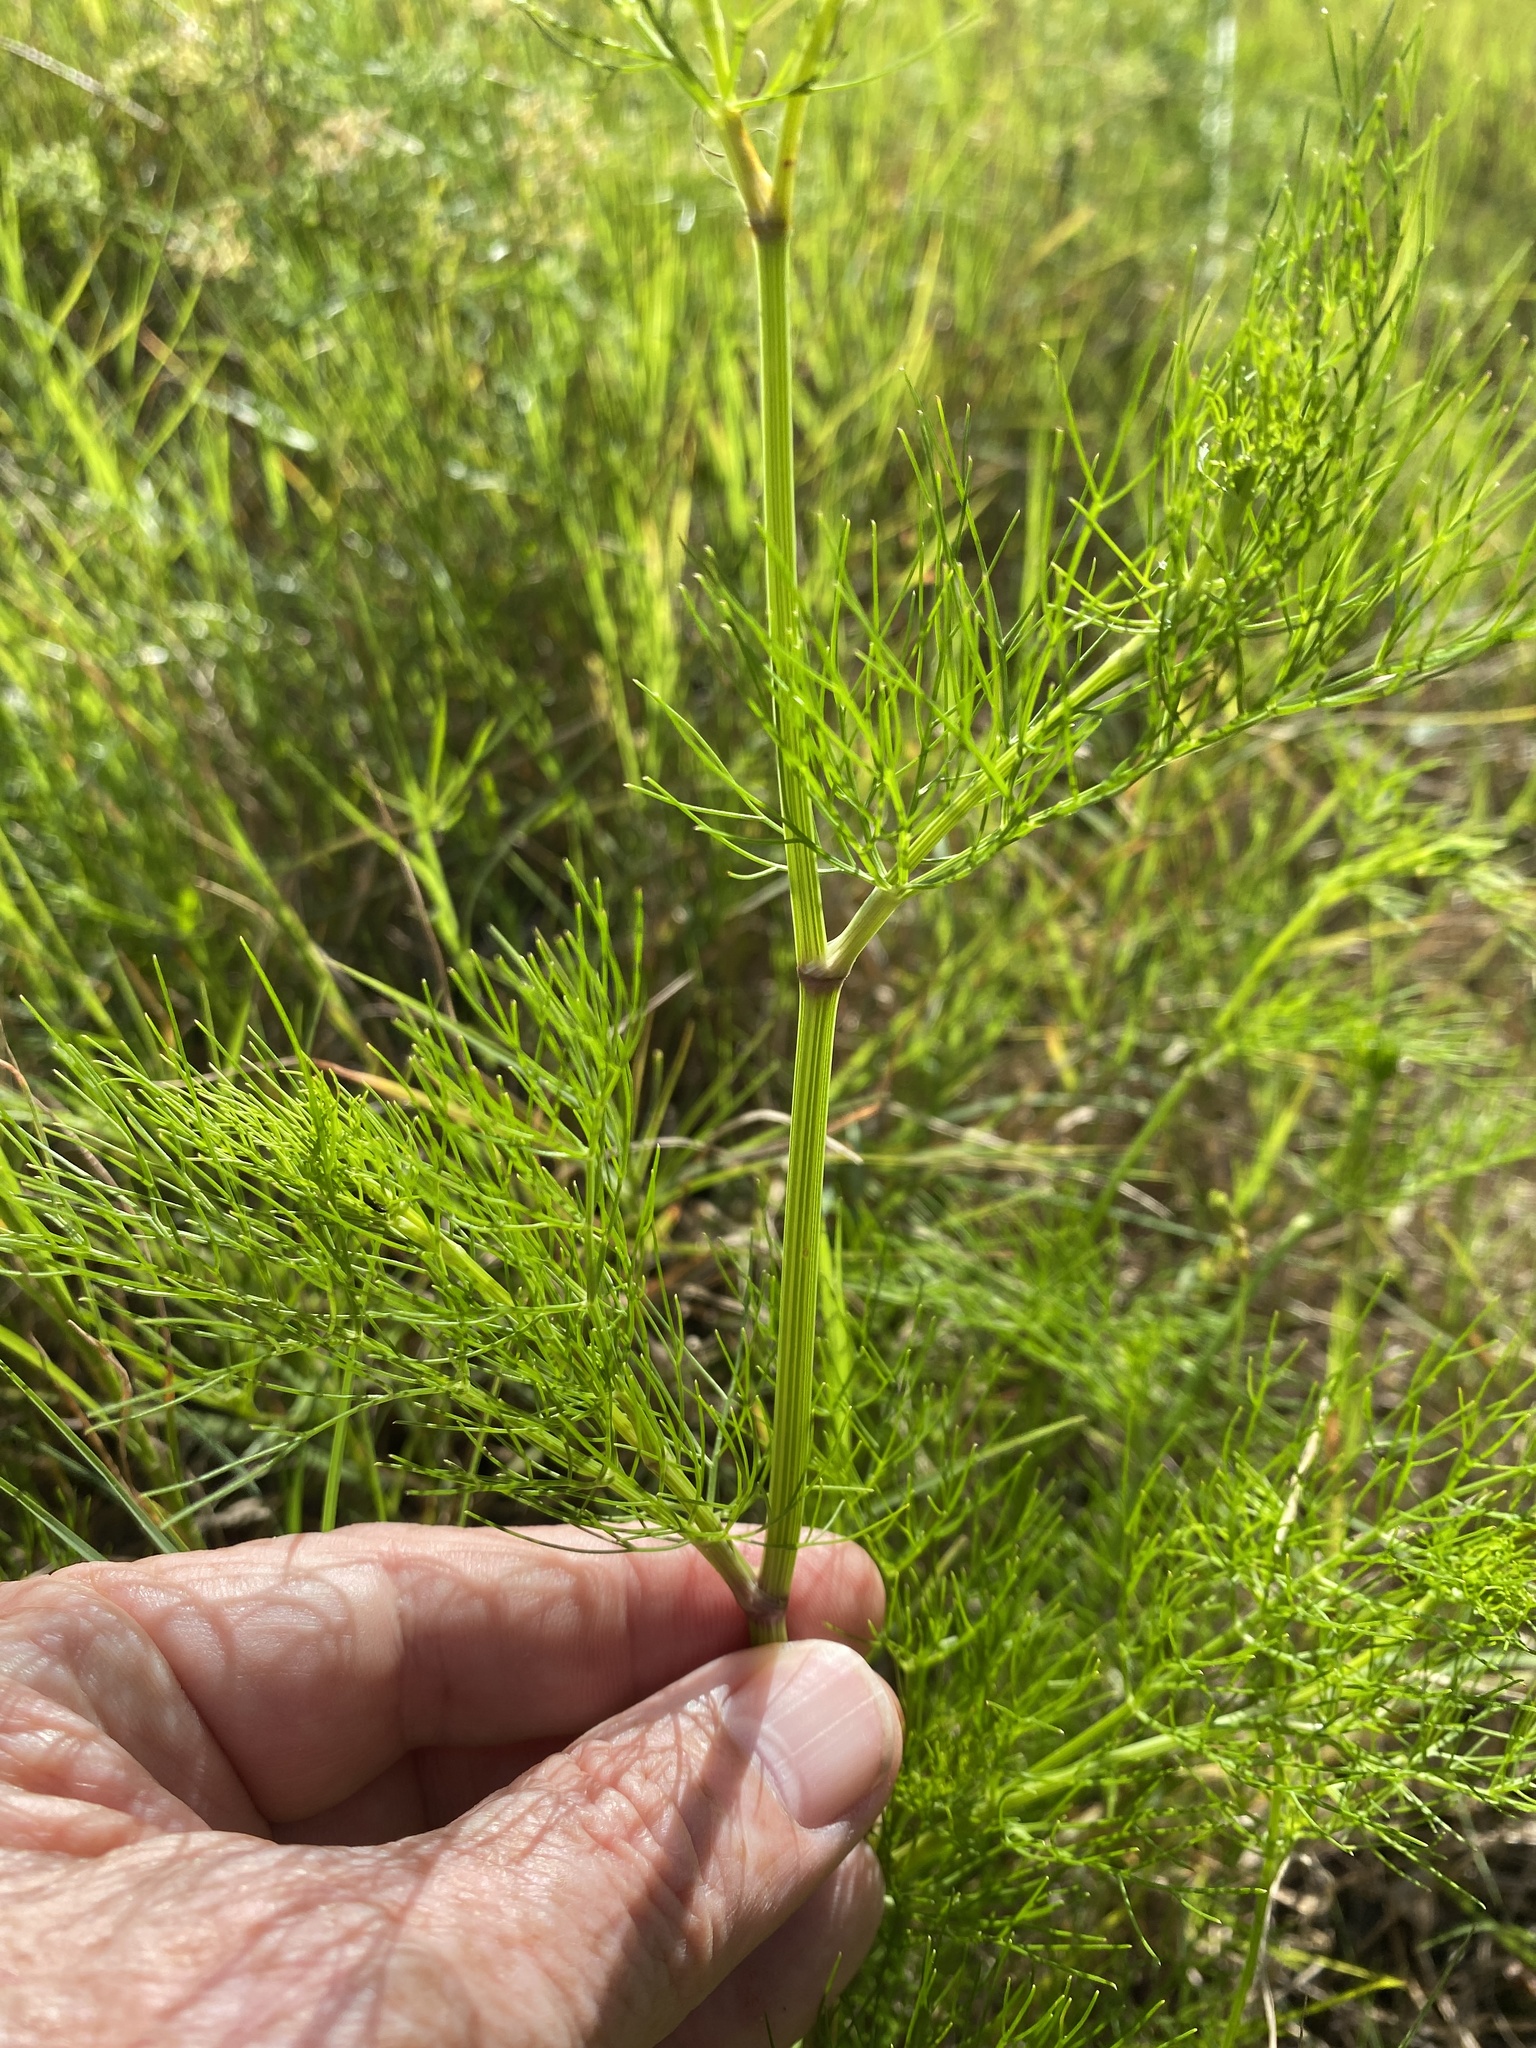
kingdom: Plantae
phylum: Tracheophyta
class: Magnoliopsida
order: Apiales
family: Apiaceae
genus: Ptilimnium
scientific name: Ptilimnium capillaceum
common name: Herbwilliam
